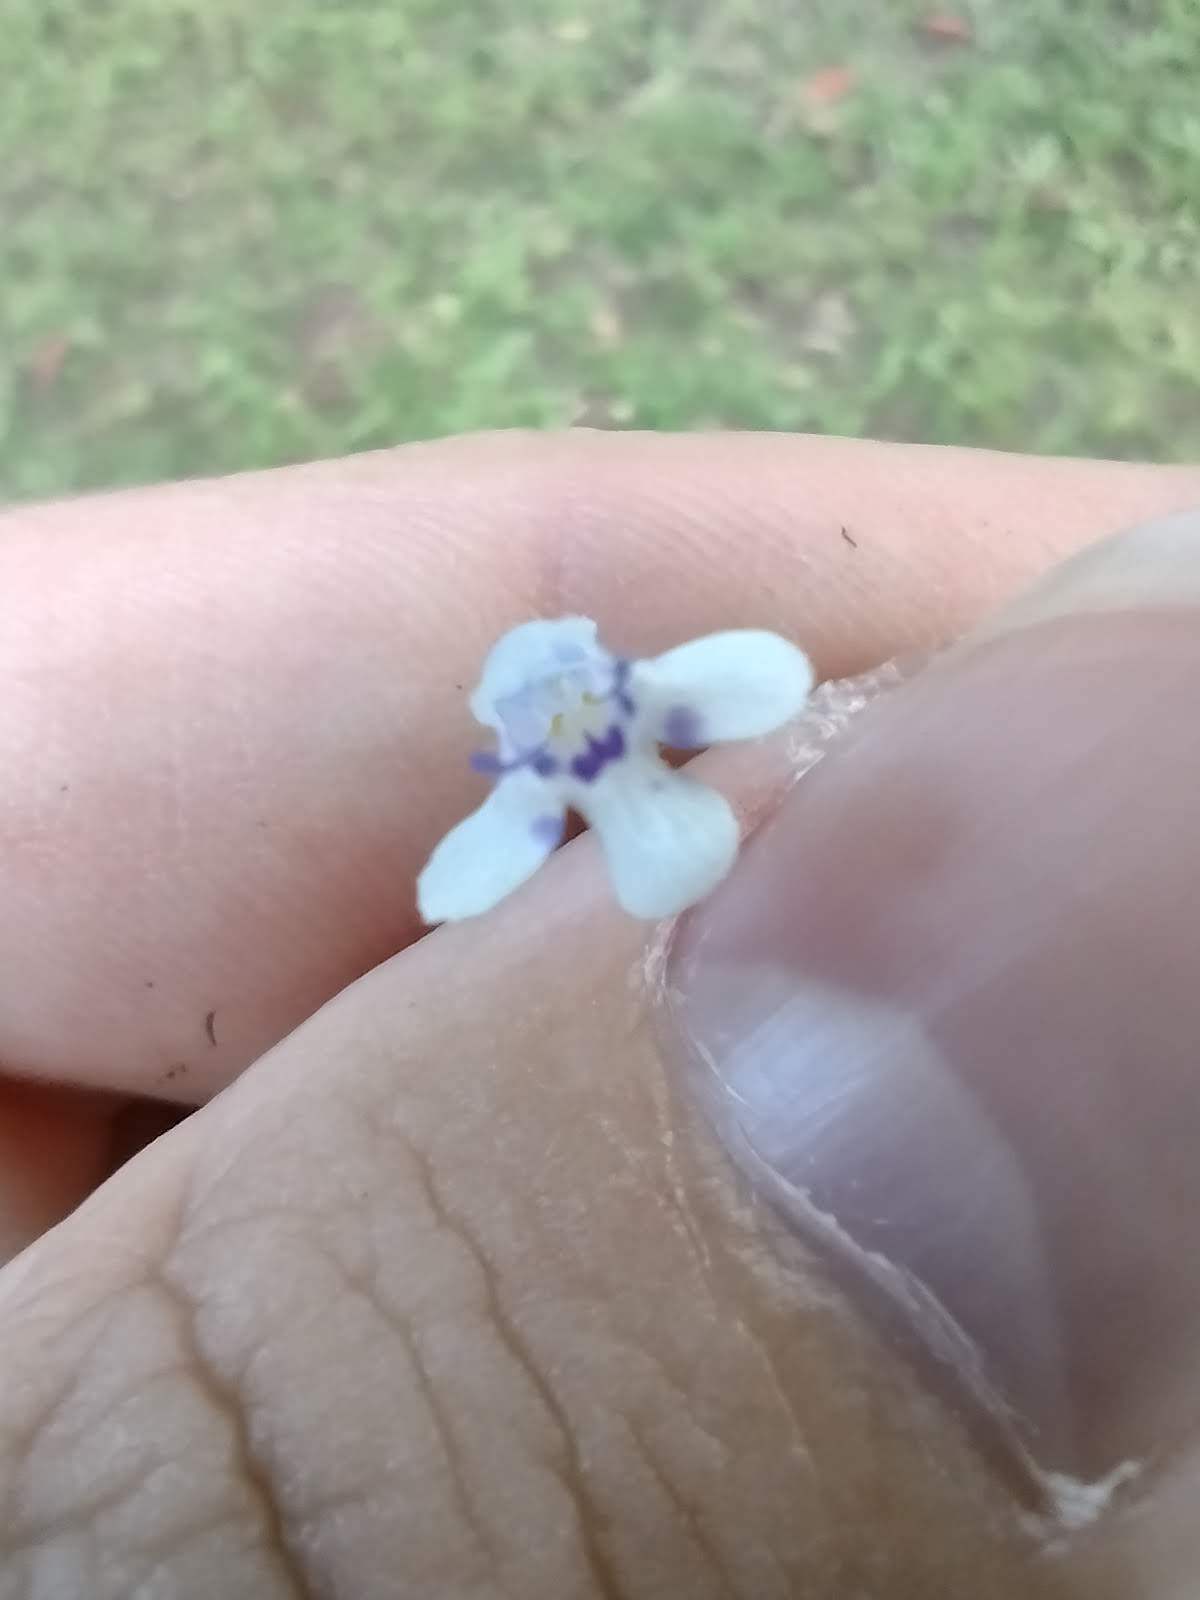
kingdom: Plantae
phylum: Tracheophyta
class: Magnoliopsida
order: Lamiales
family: Linderniaceae
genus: Lindernia
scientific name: Lindernia rotundifolia
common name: Baby’s tears
